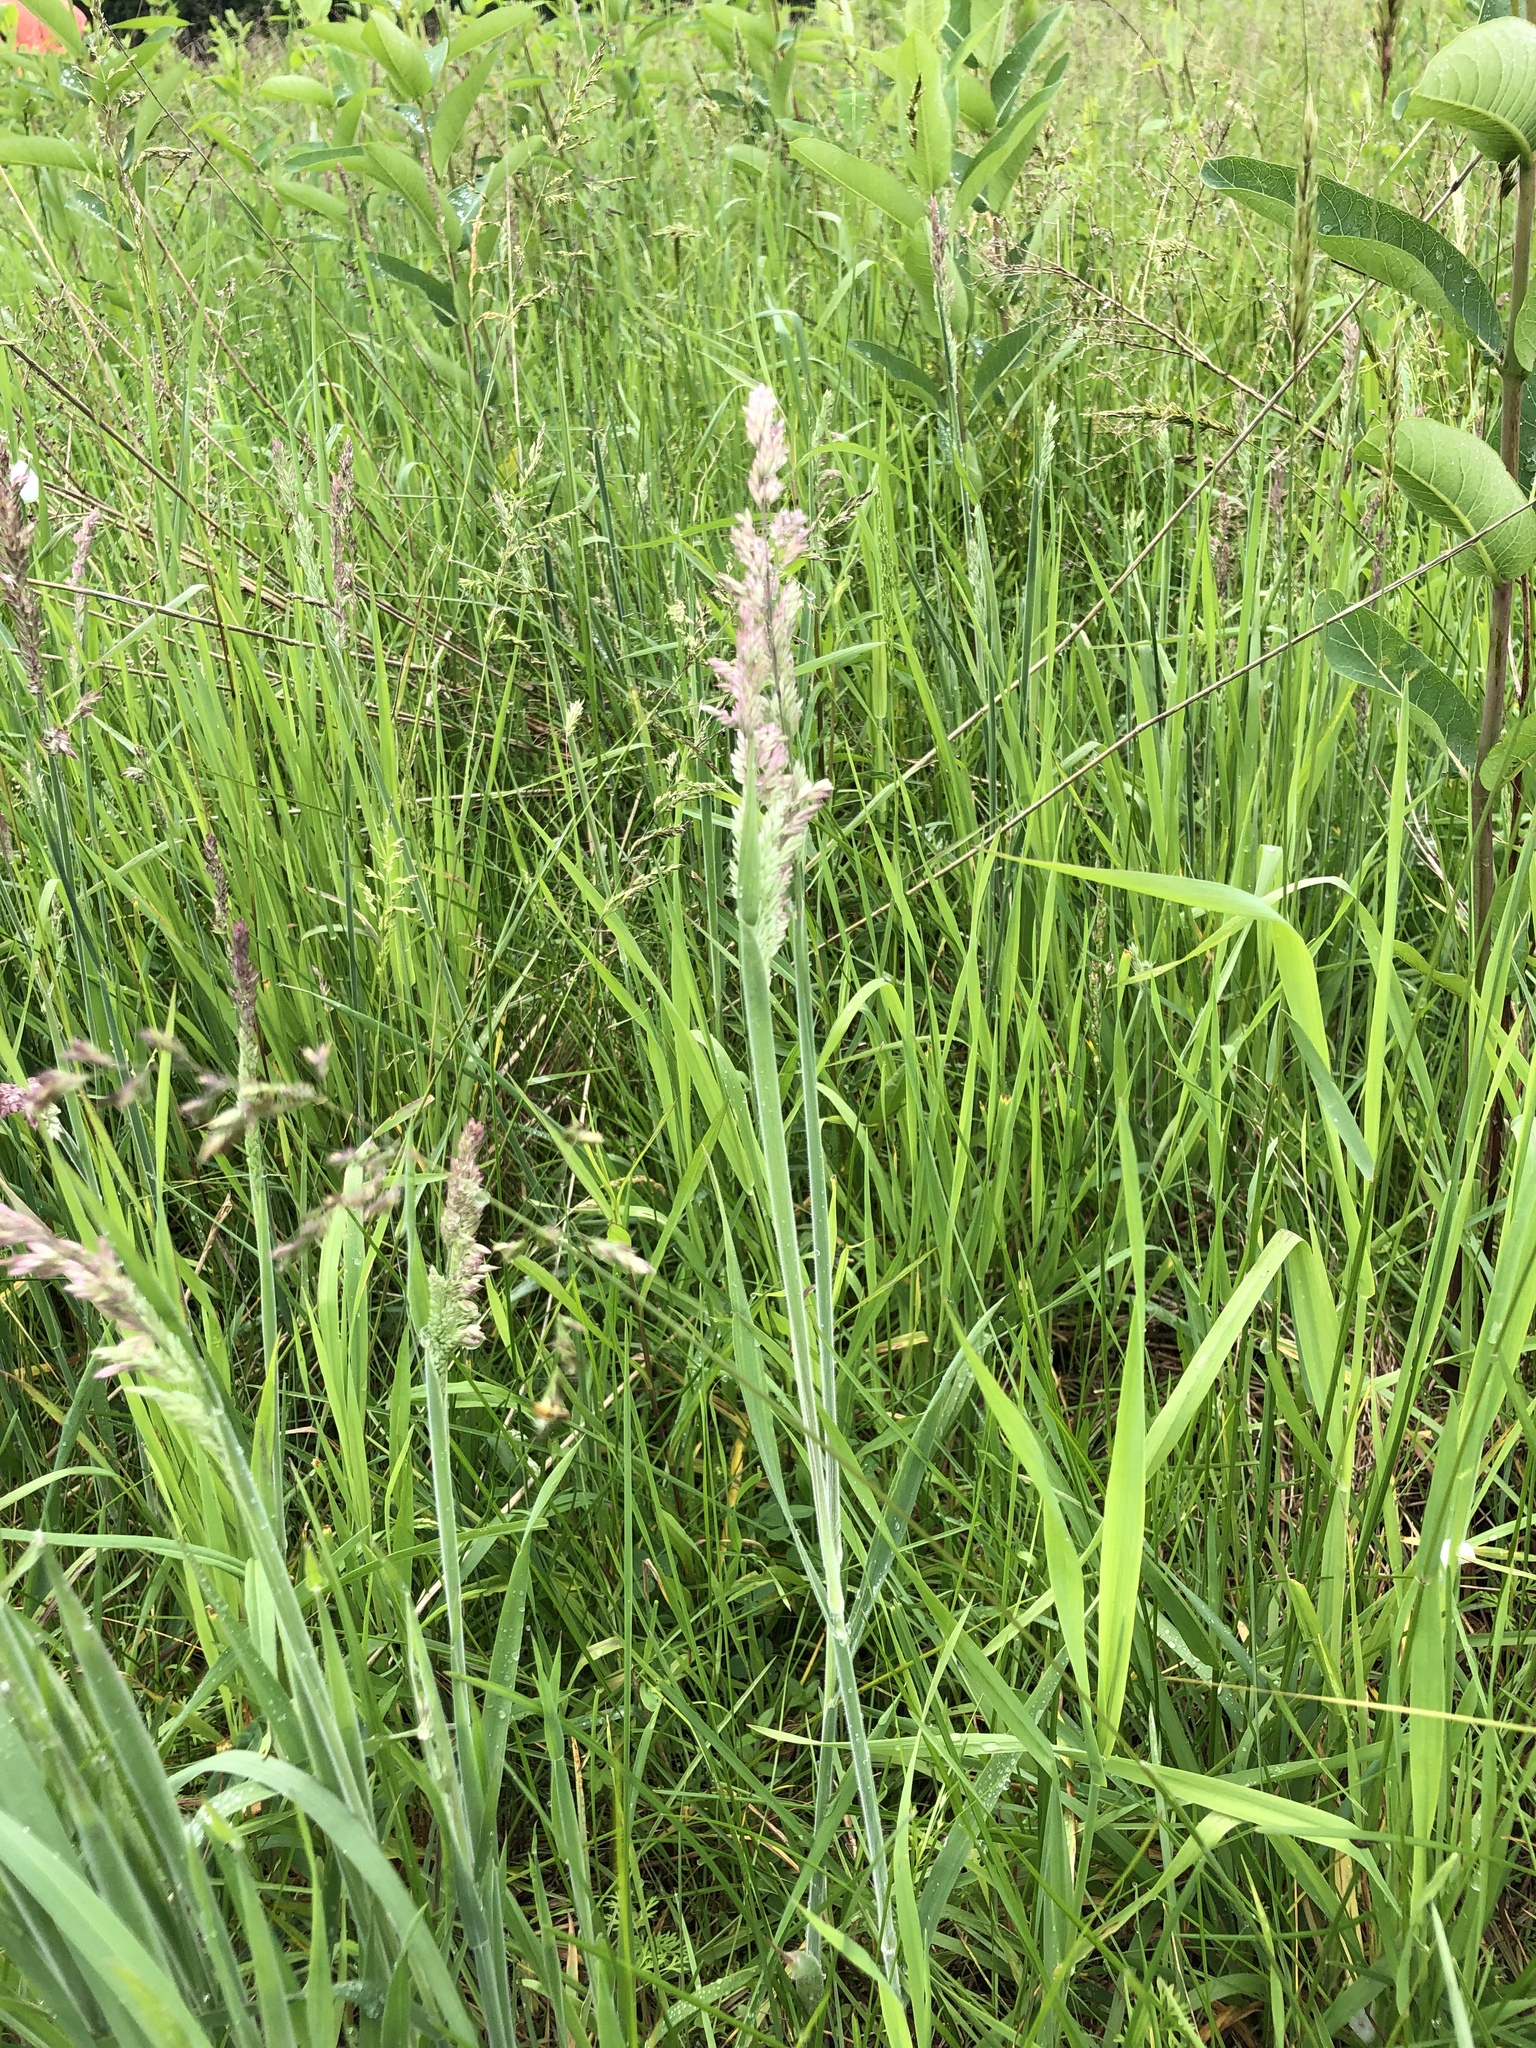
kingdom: Plantae
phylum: Tracheophyta
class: Liliopsida
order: Poales
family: Poaceae
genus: Holcus
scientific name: Holcus lanatus
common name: Yorkshire-fog
